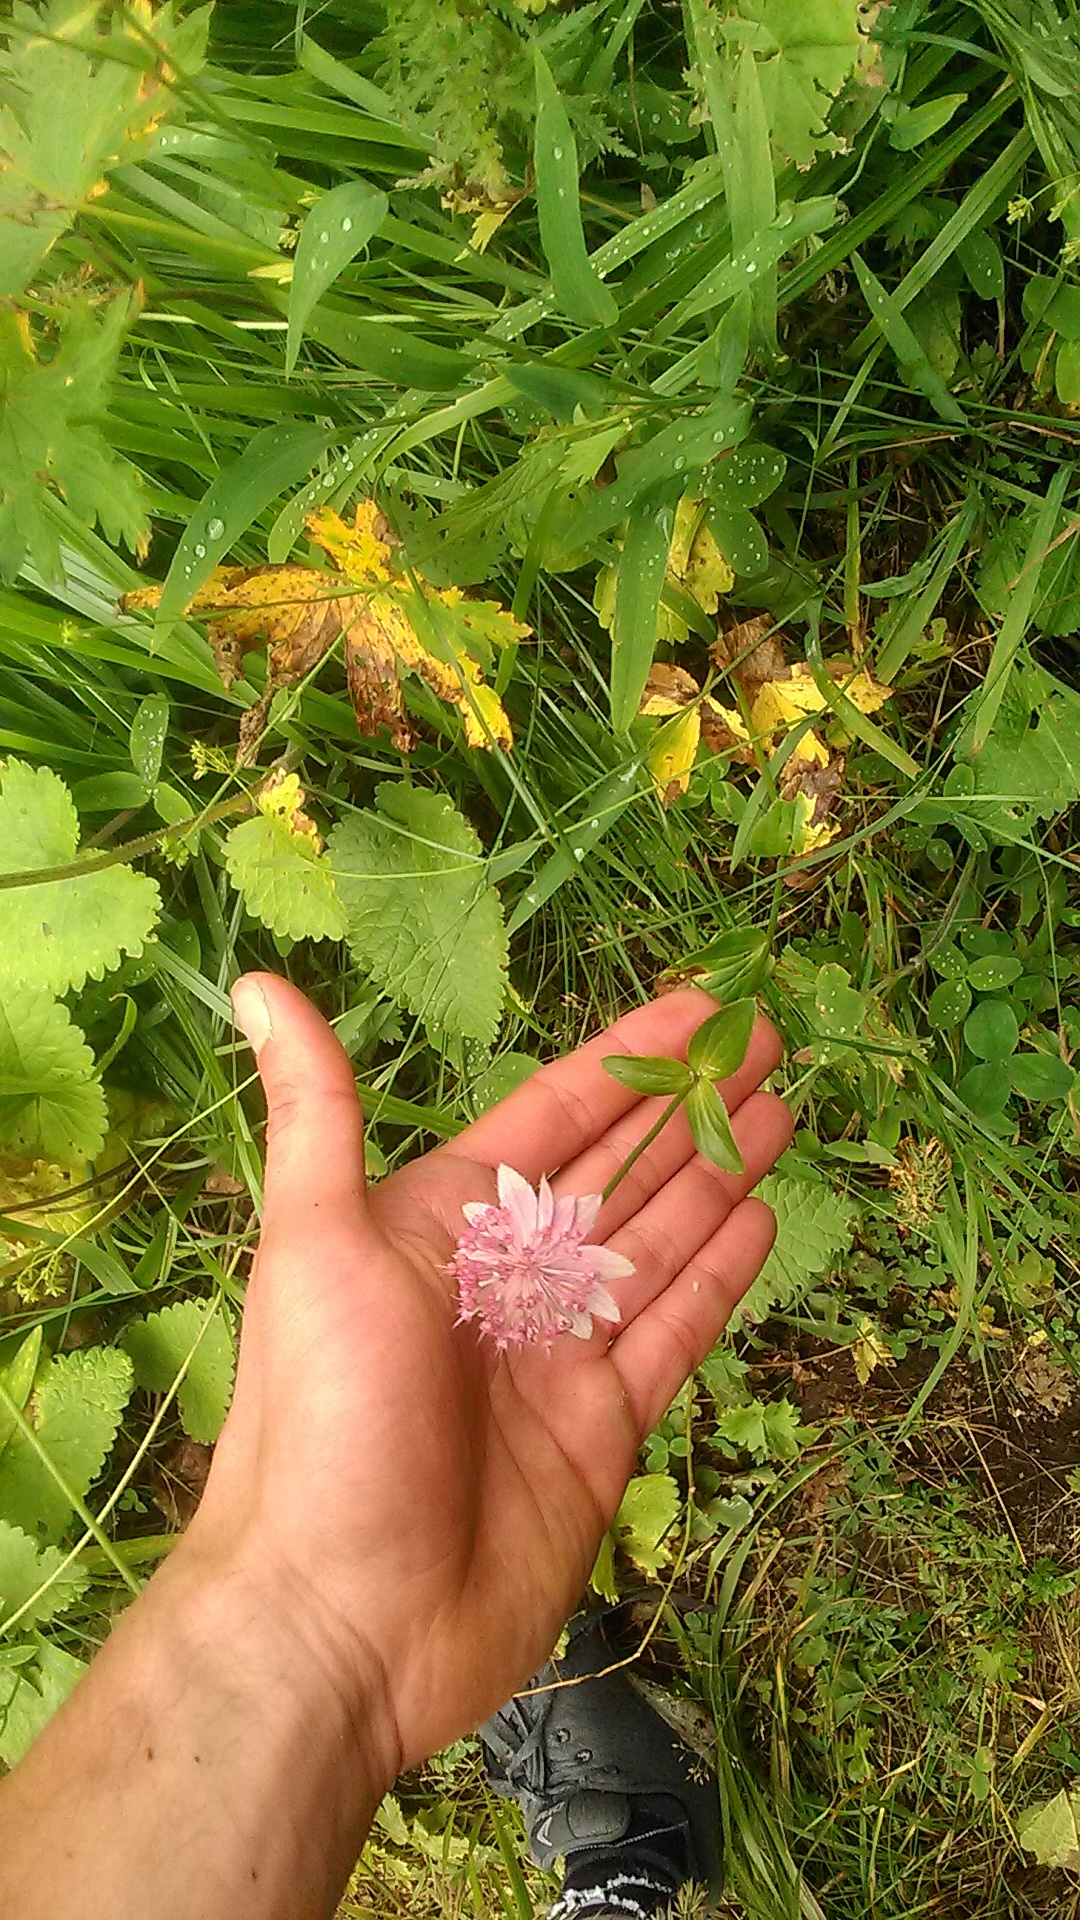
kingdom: Plantae
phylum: Tracheophyta
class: Magnoliopsida
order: Apiales
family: Apiaceae
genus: Astrantia
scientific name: Astrantia maxima
